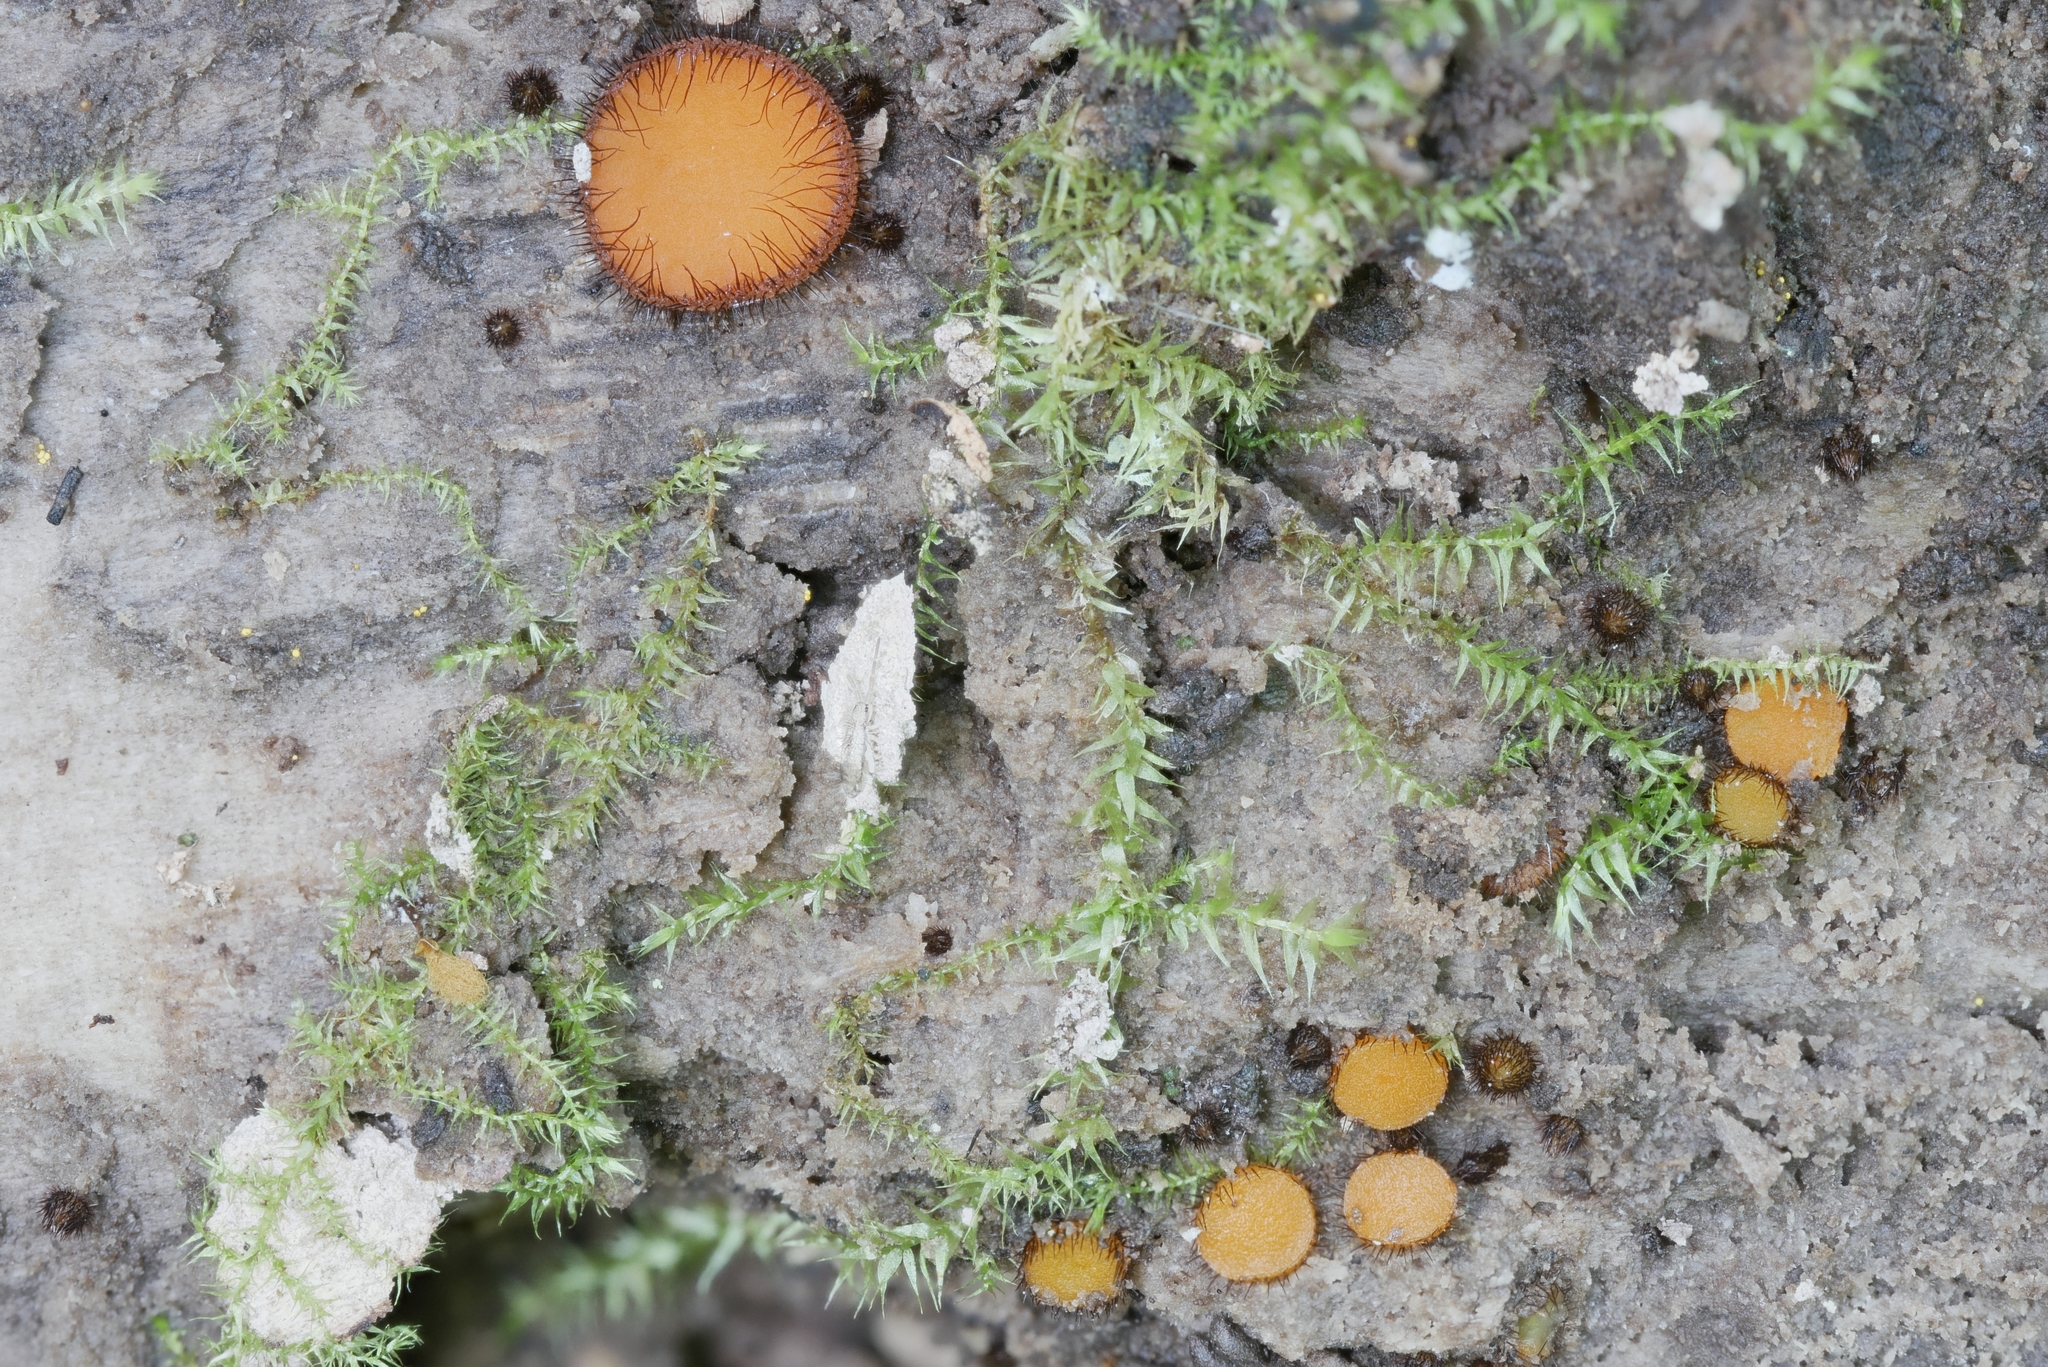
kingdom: Fungi
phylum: Ascomycota
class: Pezizomycetes
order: Pezizales
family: Pyronemataceae
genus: Scutellinia
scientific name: Scutellinia setosa
